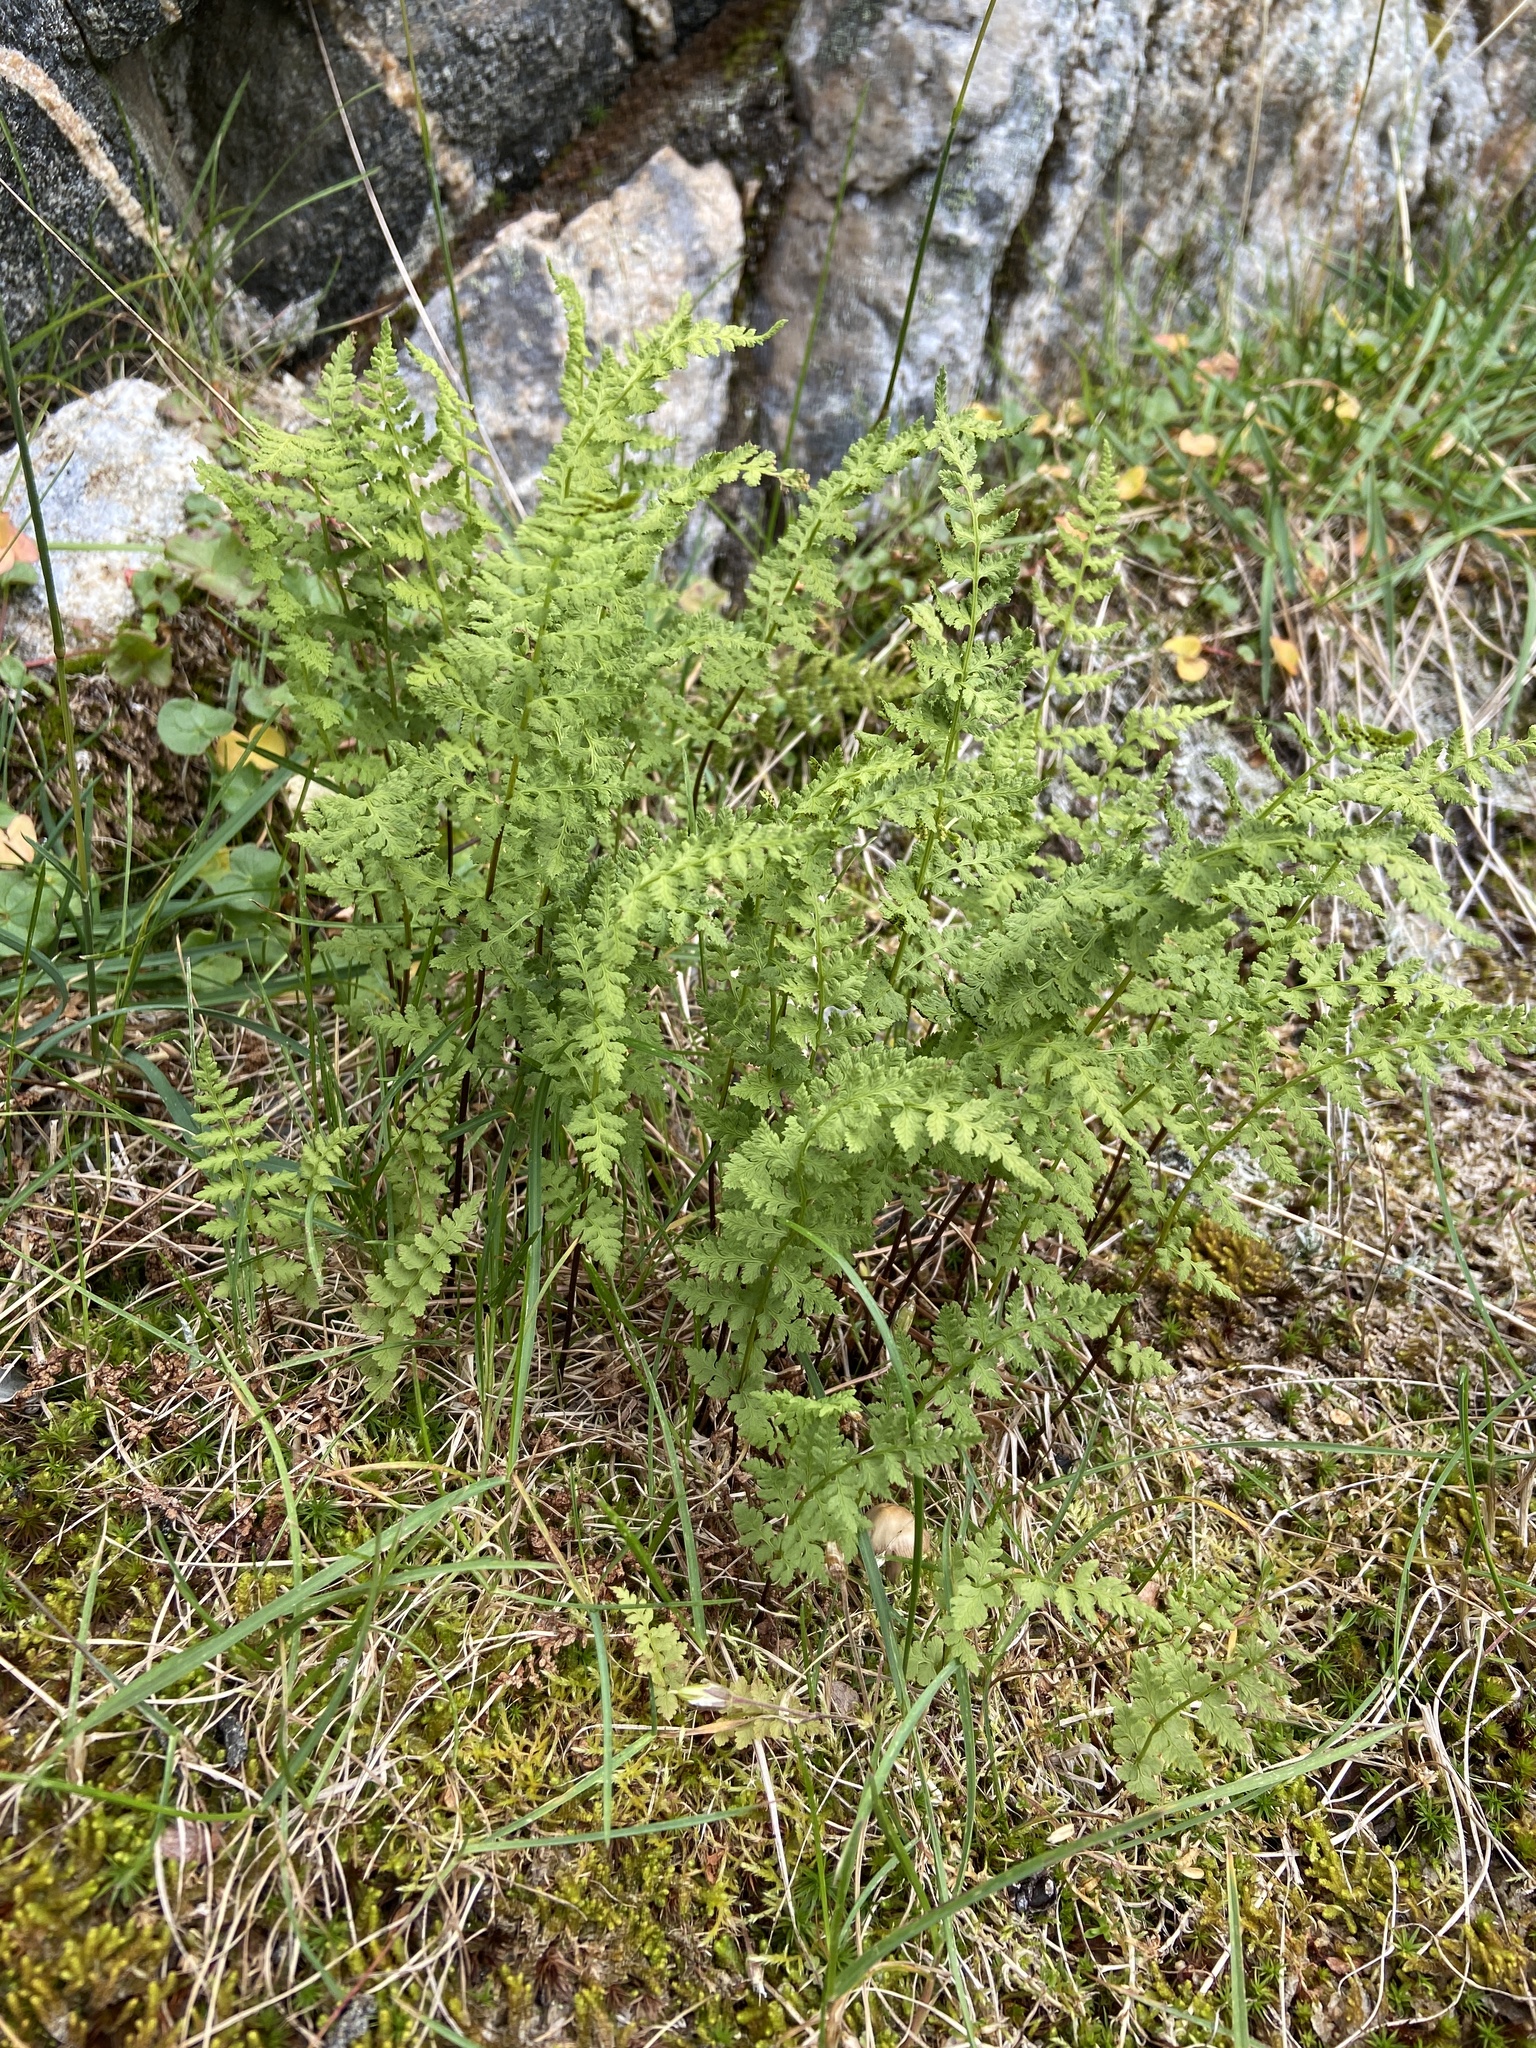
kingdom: Plantae
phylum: Tracheophyta
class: Polypodiopsida
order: Polypodiales
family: Cystopteridaceae
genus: Cystopteris
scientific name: Cystopteris fragilis
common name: Brittle bladder fern
